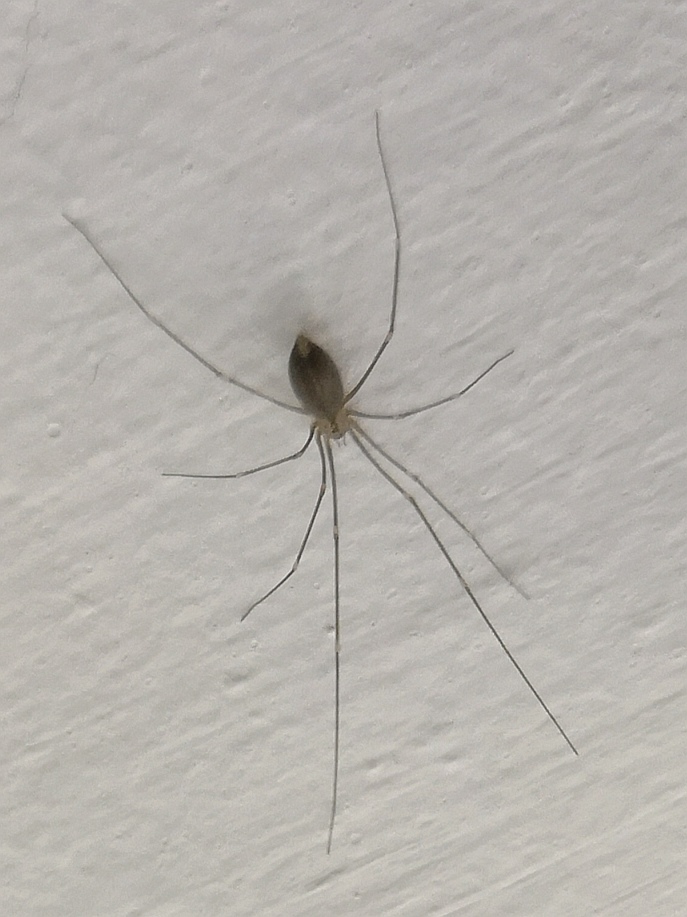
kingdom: Animalia
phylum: Arthropoda
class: Arachnida
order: Araneae
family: Pholcidae
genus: Pholcus
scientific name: Pholcus phalangioides
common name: Longbodied cellar spider
